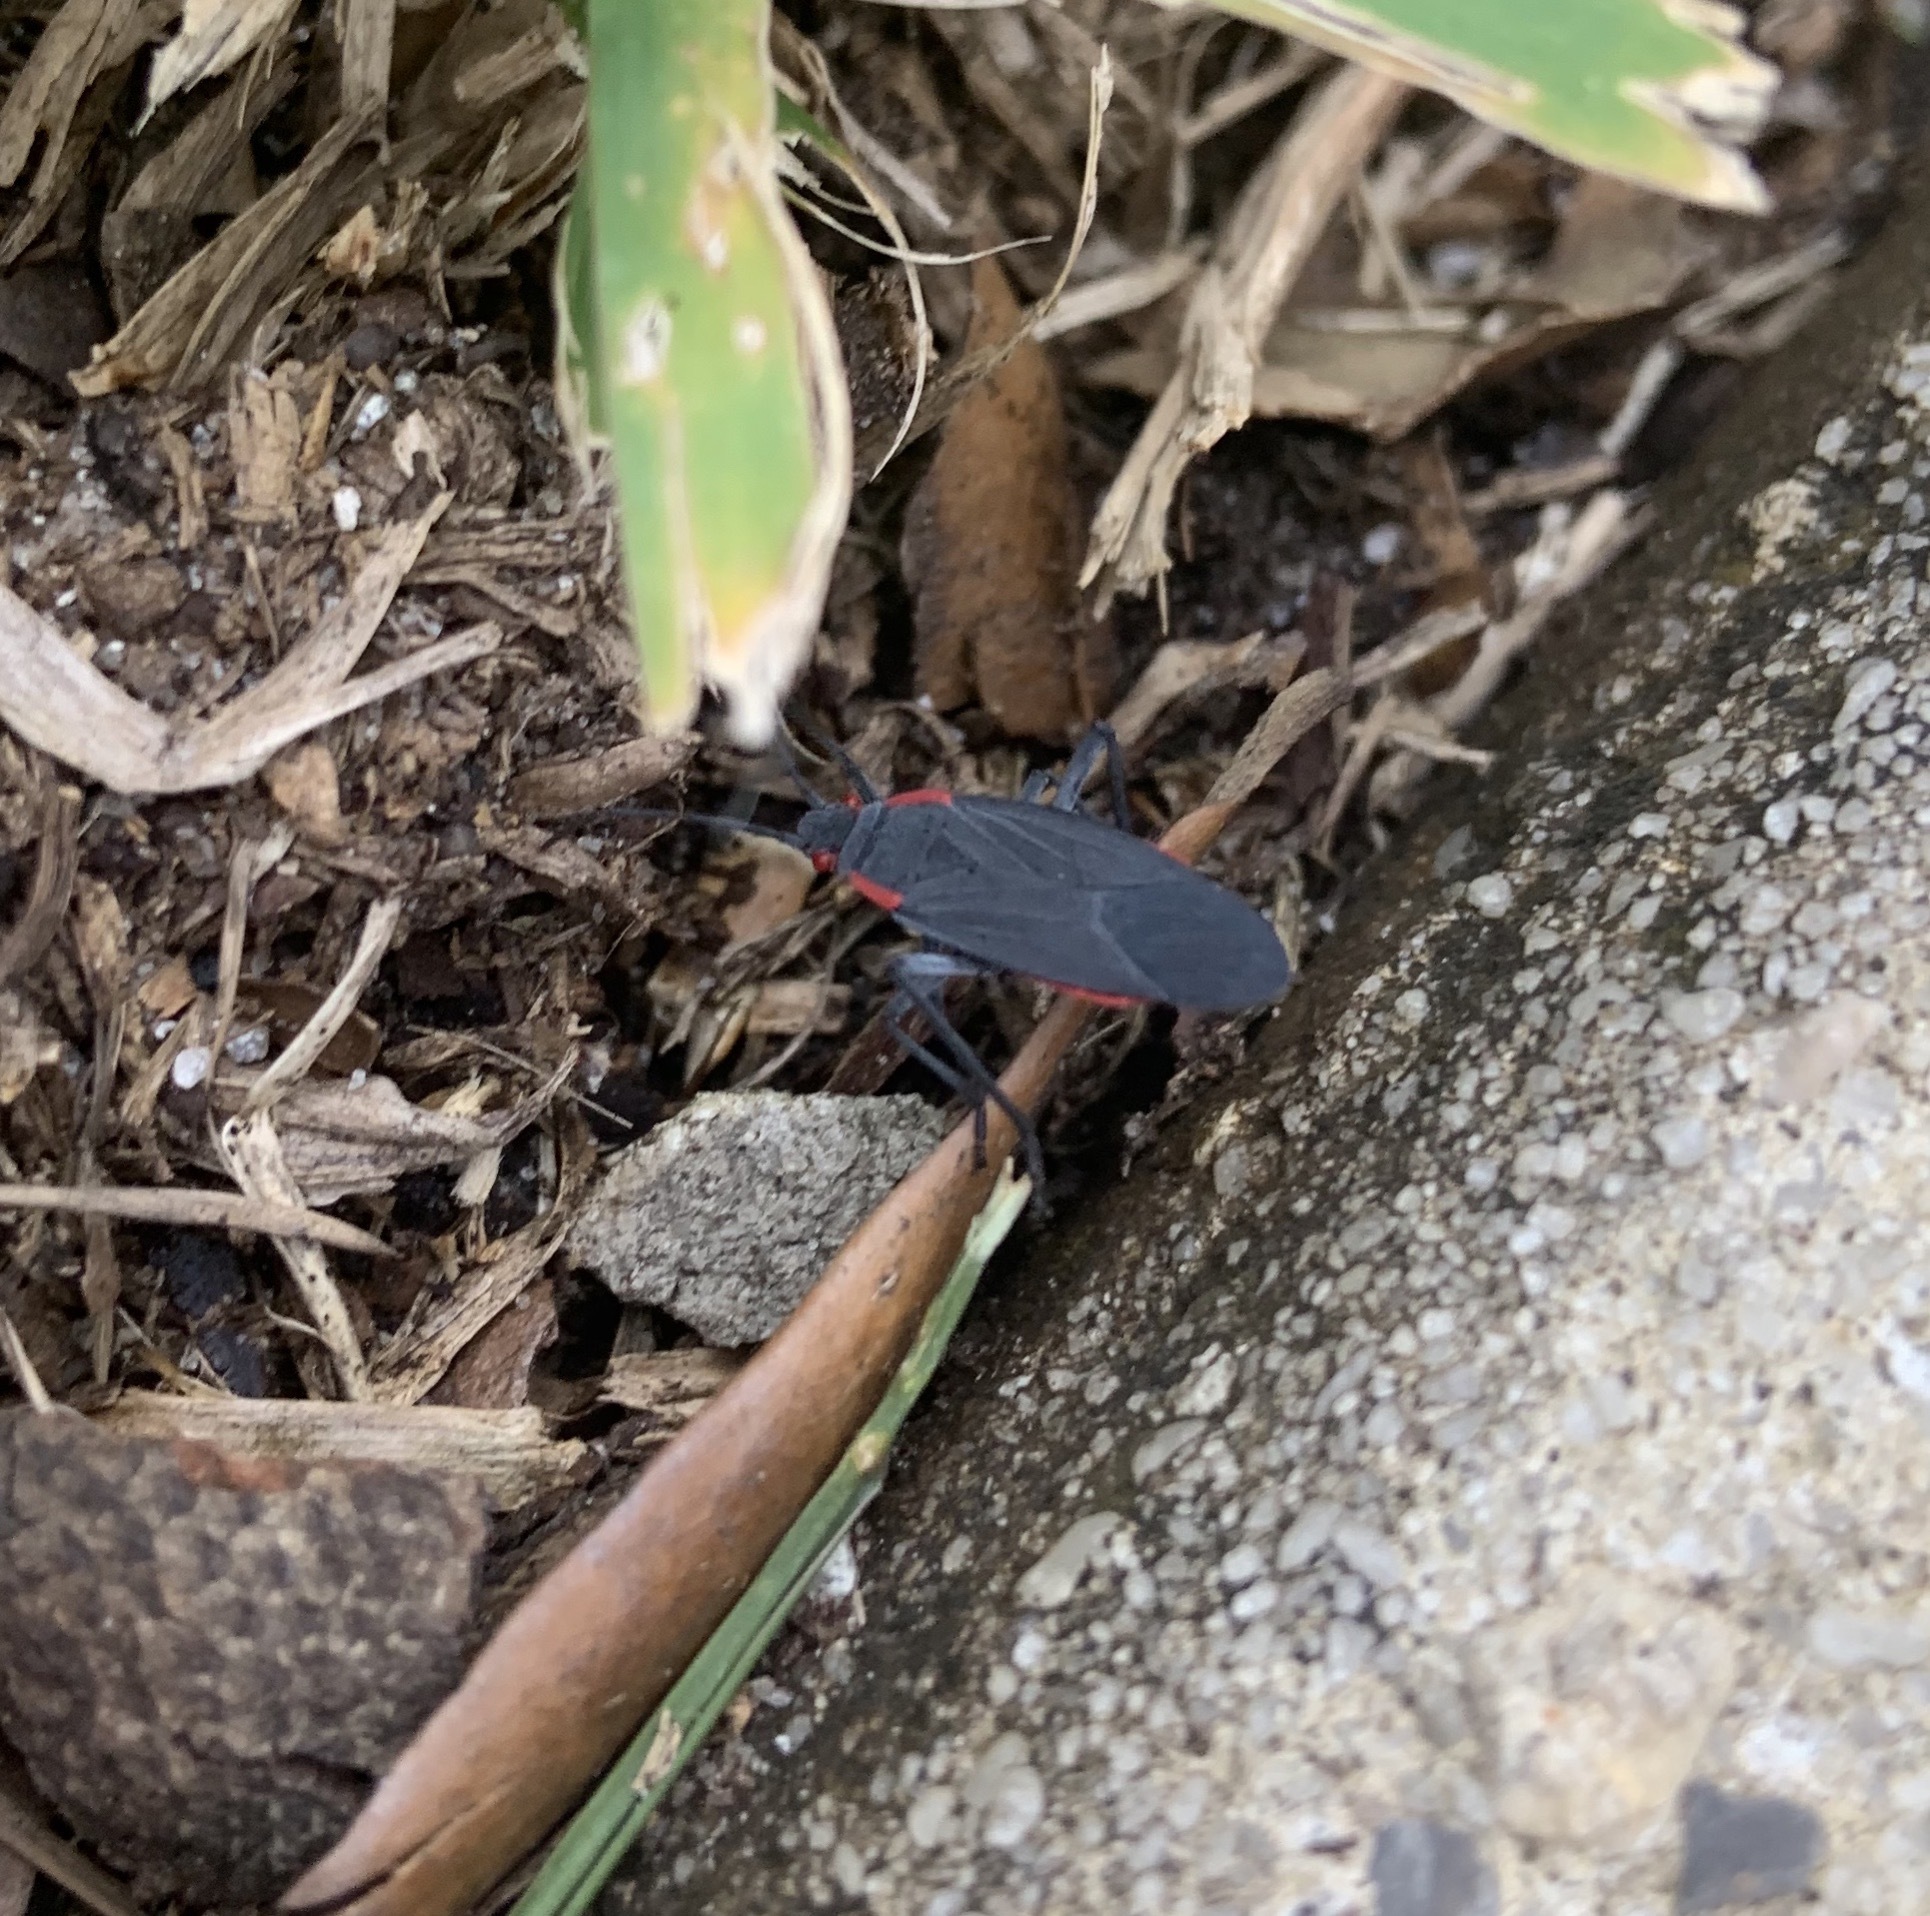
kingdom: Animalia
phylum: Arthropoda
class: Insecta
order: Hemiptera
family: Rhopalidae
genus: Jadera
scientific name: Jadera haematoloma
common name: Red-shouldered bug
